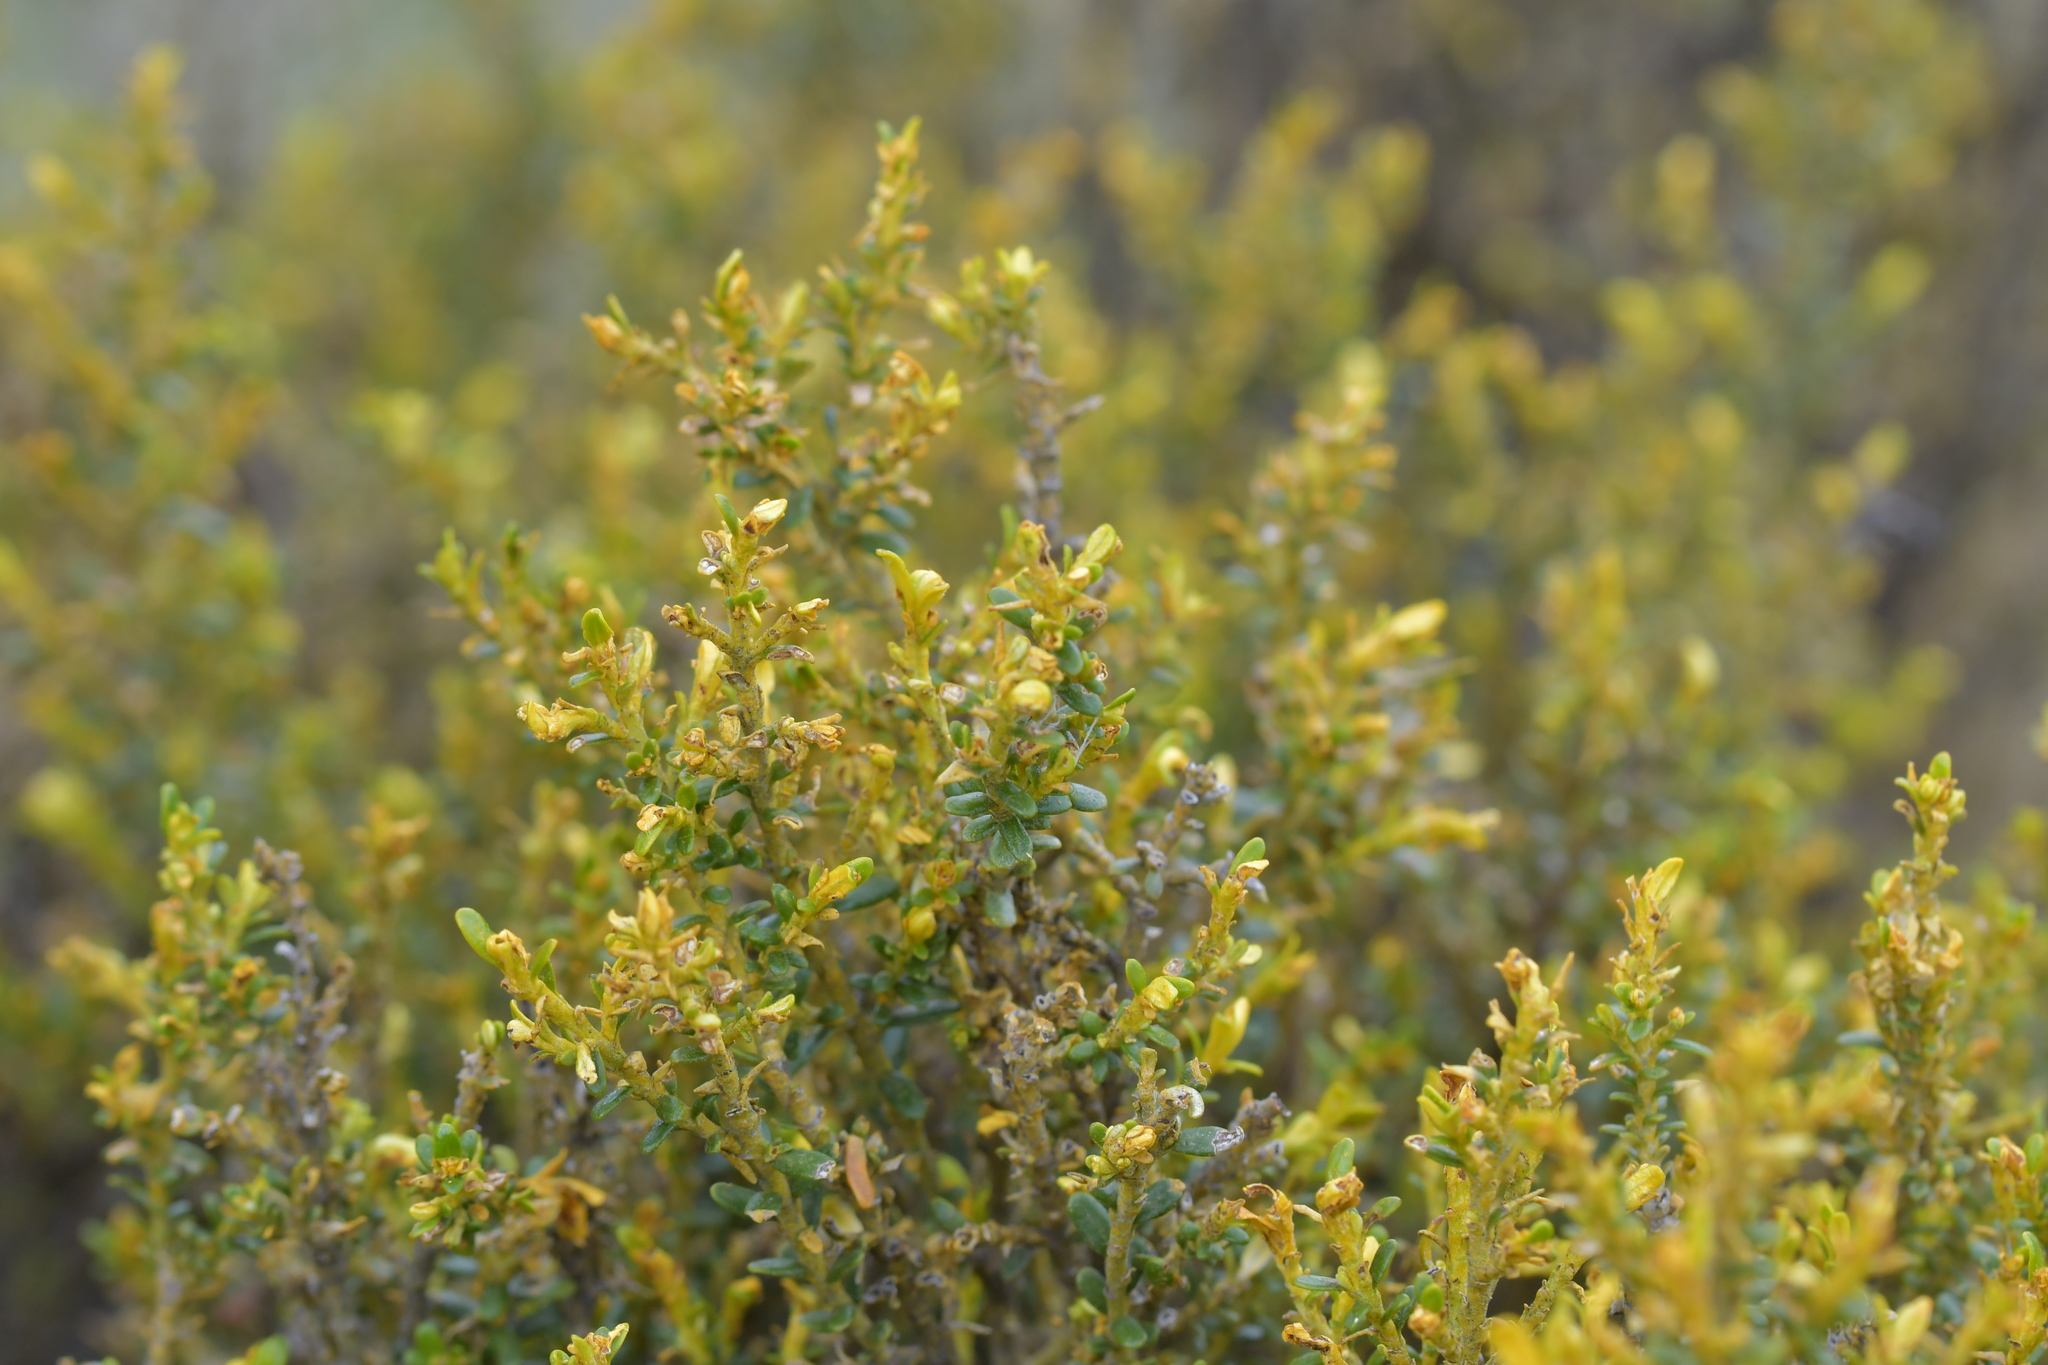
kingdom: Plantae
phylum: Tracheophyta
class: Magnoliopsida
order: Asterales
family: Asteraceae
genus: Ozothamnus
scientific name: Ozothamnus leptophyllus
